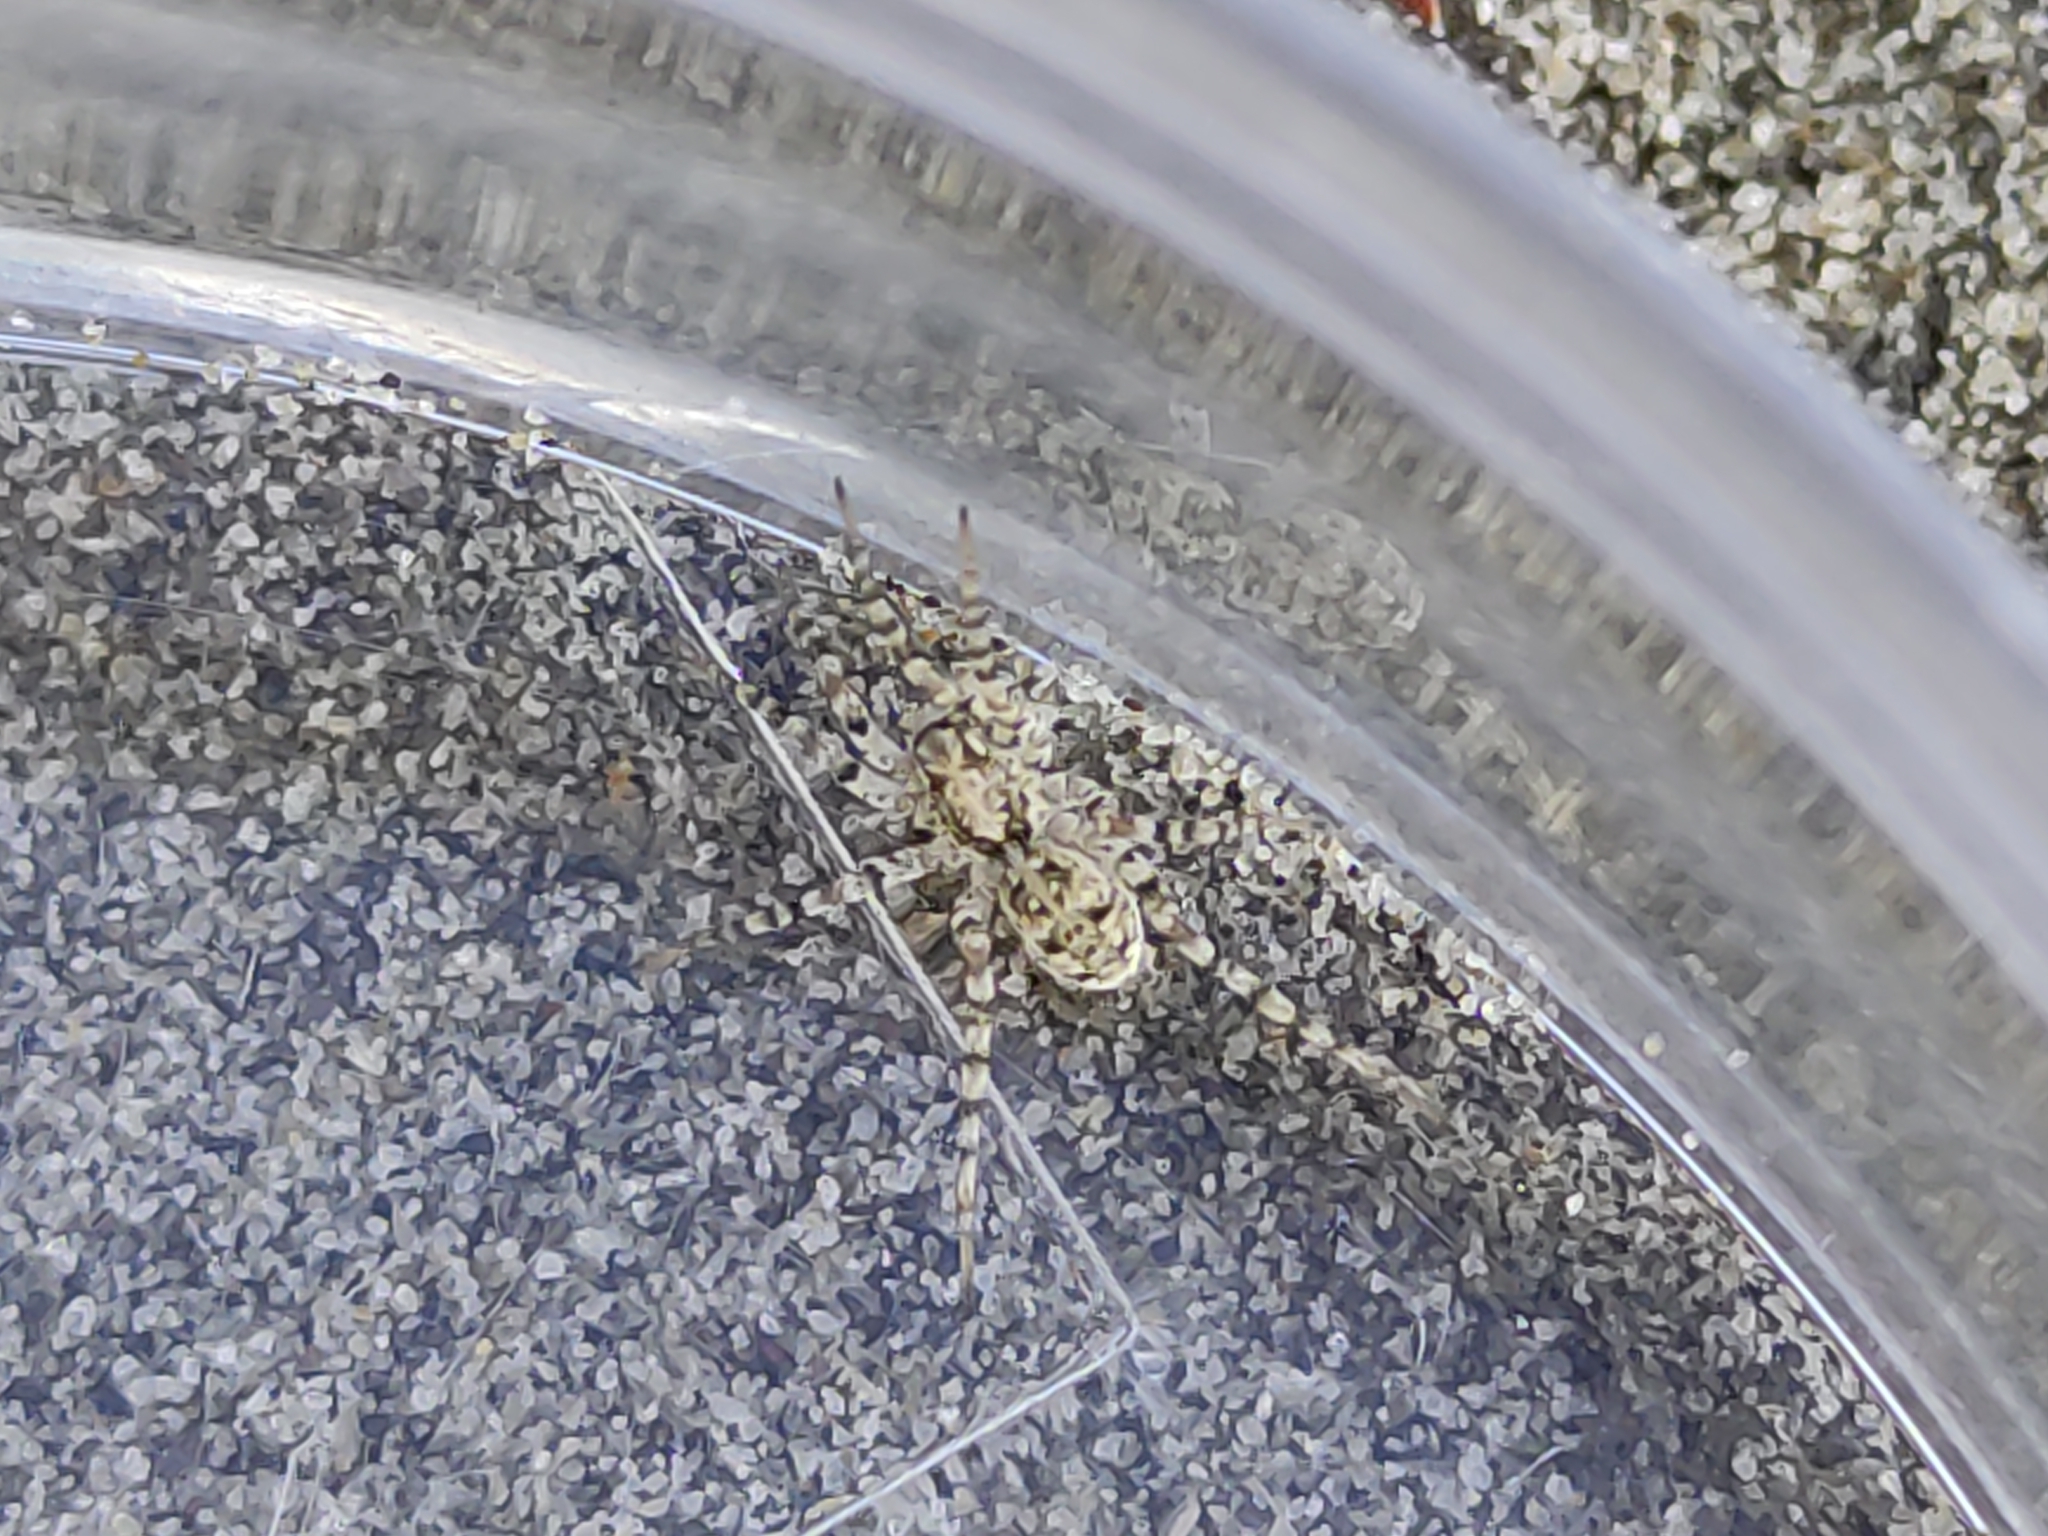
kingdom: Animalia
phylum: Arthropoda
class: Arachnida
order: Araneae
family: Lycosidae
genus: Anoteropsis
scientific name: Anoteropsis litoralis
